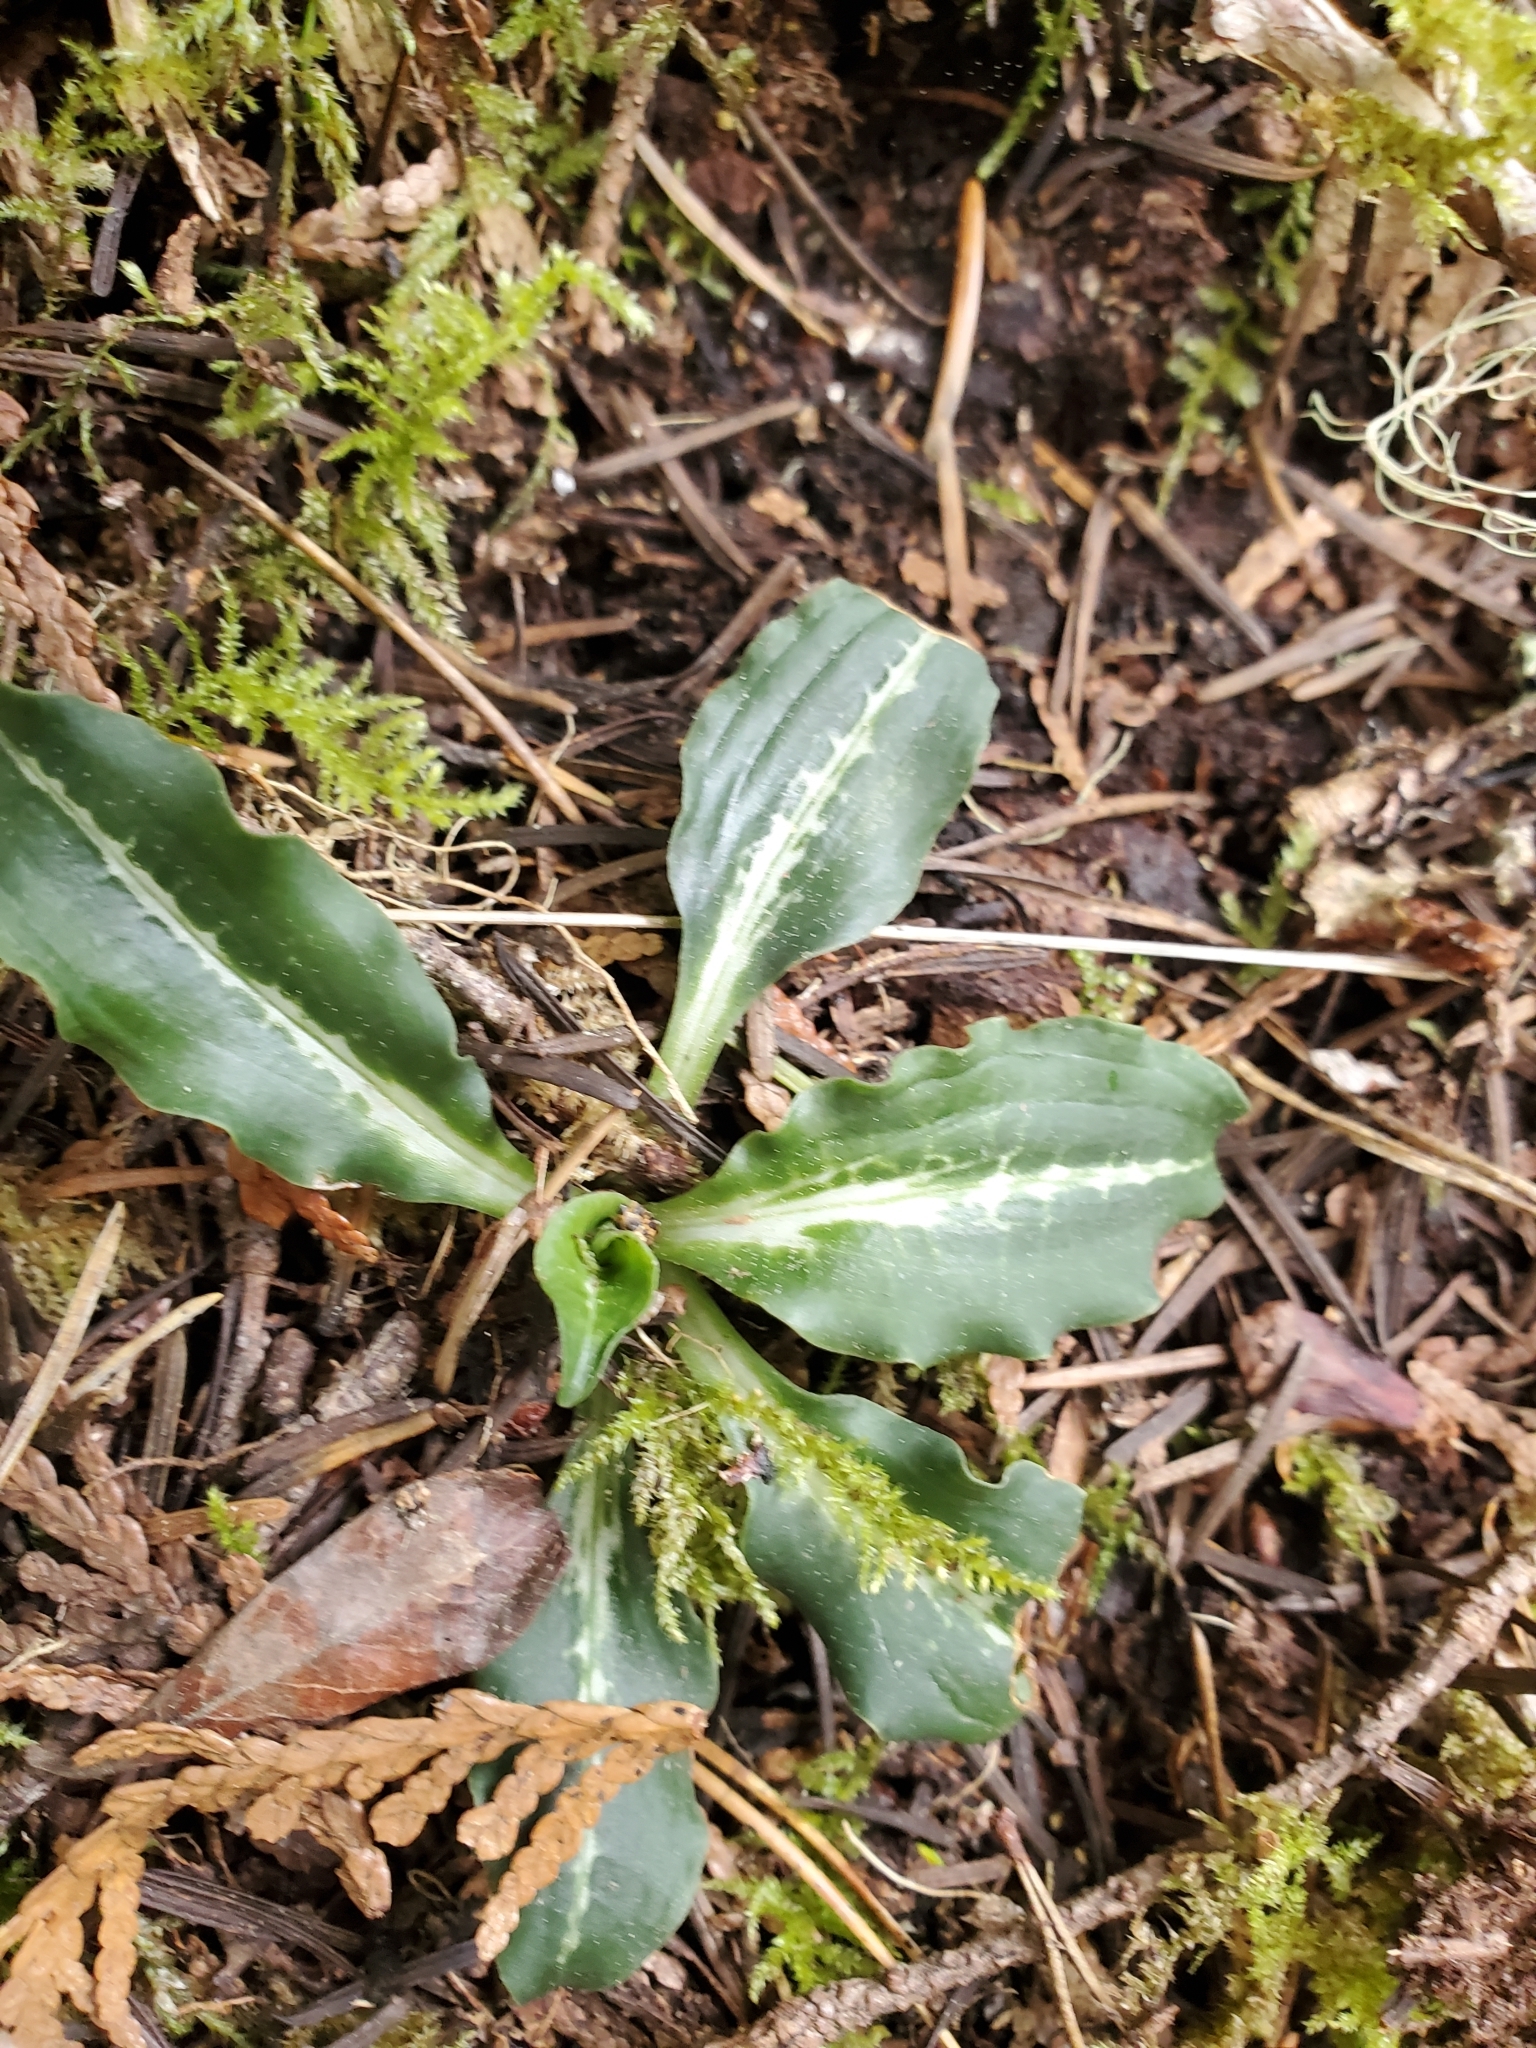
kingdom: Plantae
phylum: Tracheophyta
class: Liliopsida
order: Asparagales
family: Orchidaceae
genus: Goodyera
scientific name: Goodyera oblongifolia
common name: Giant rattlesnake-plantain
